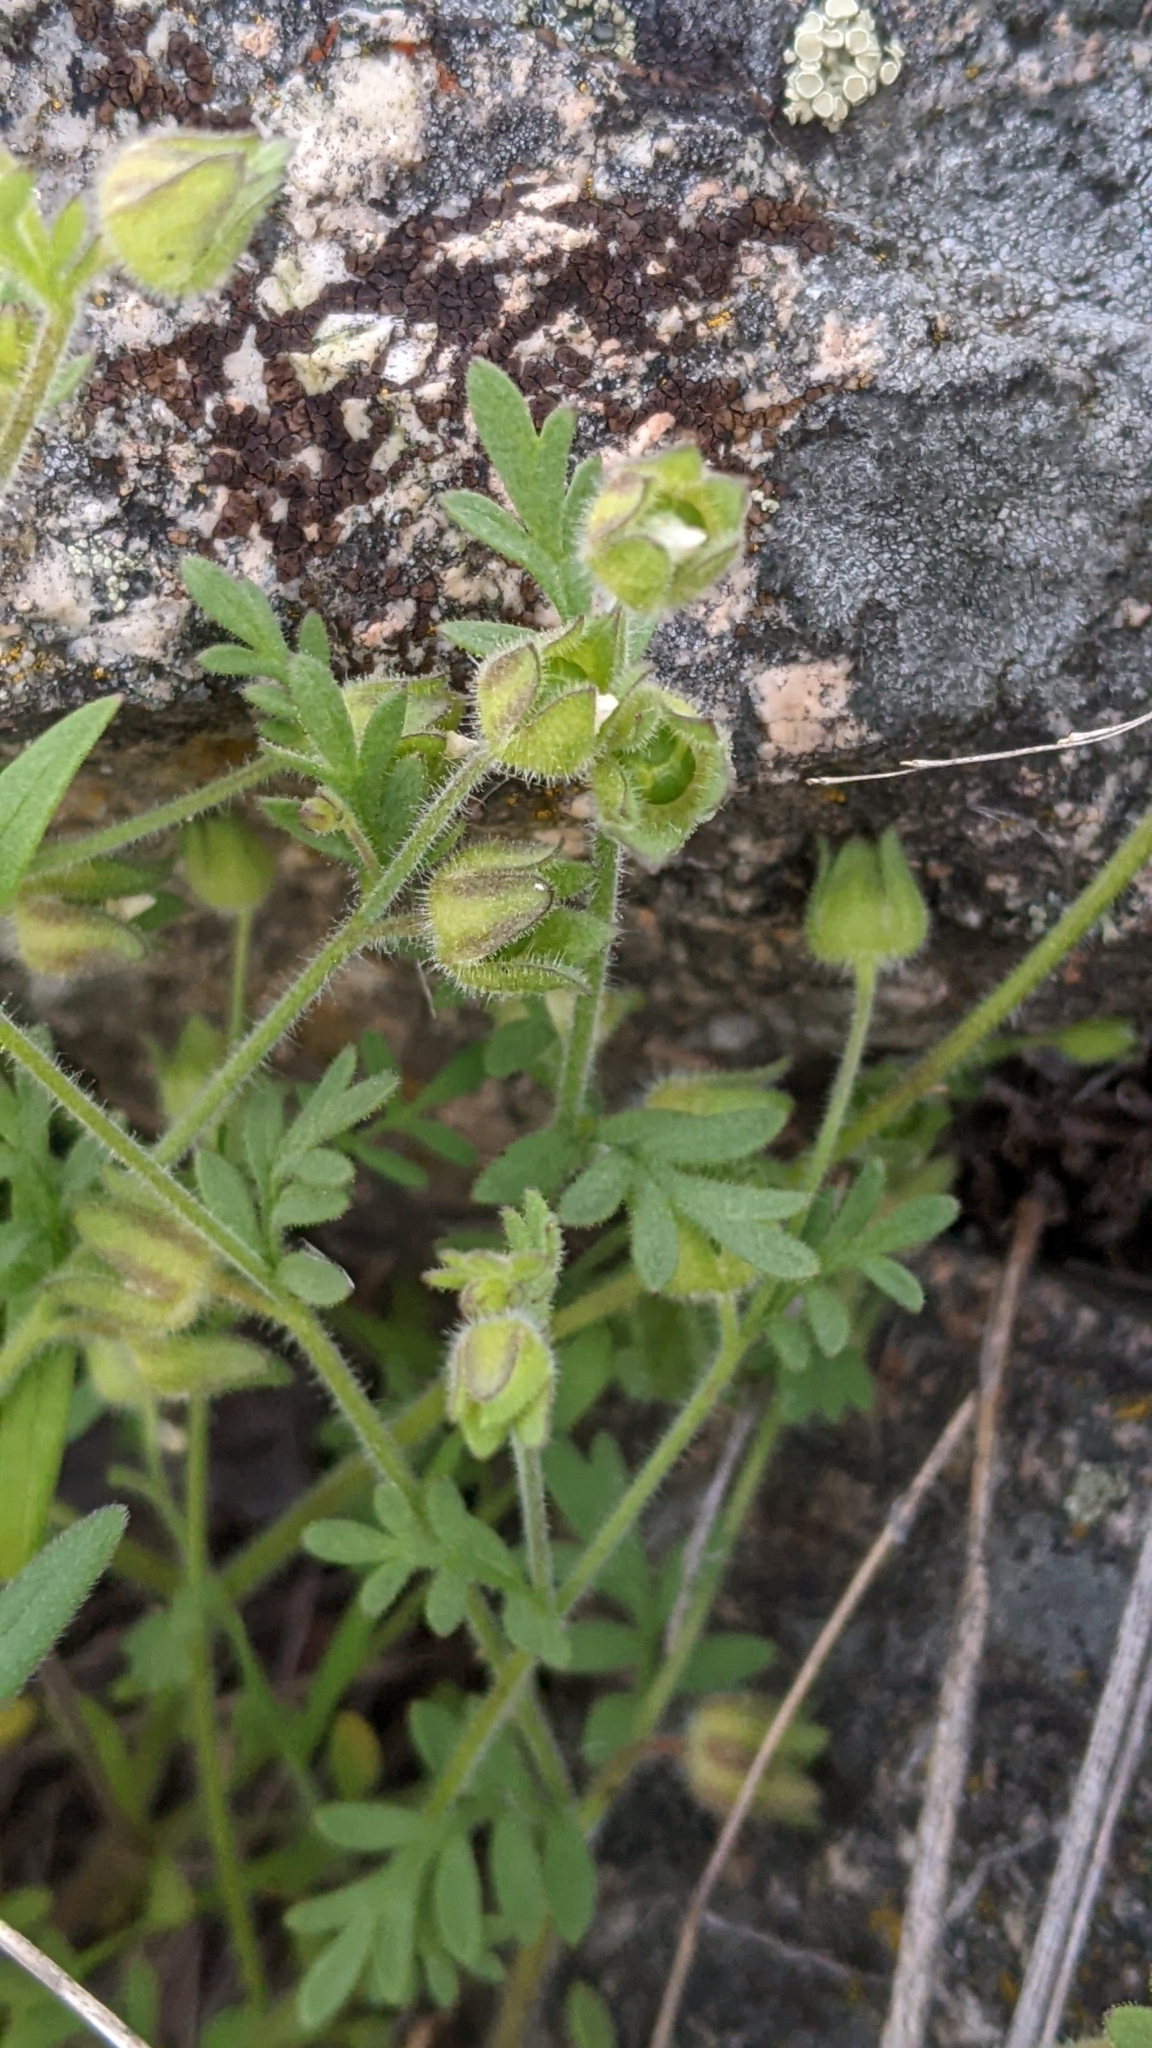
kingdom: Plantae
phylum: Tracheophyta
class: Magnoliopsida
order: Ericales
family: Polemoniaceae
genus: Polemonium
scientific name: Polemonium micranthum
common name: Annual jacob's-ladder
